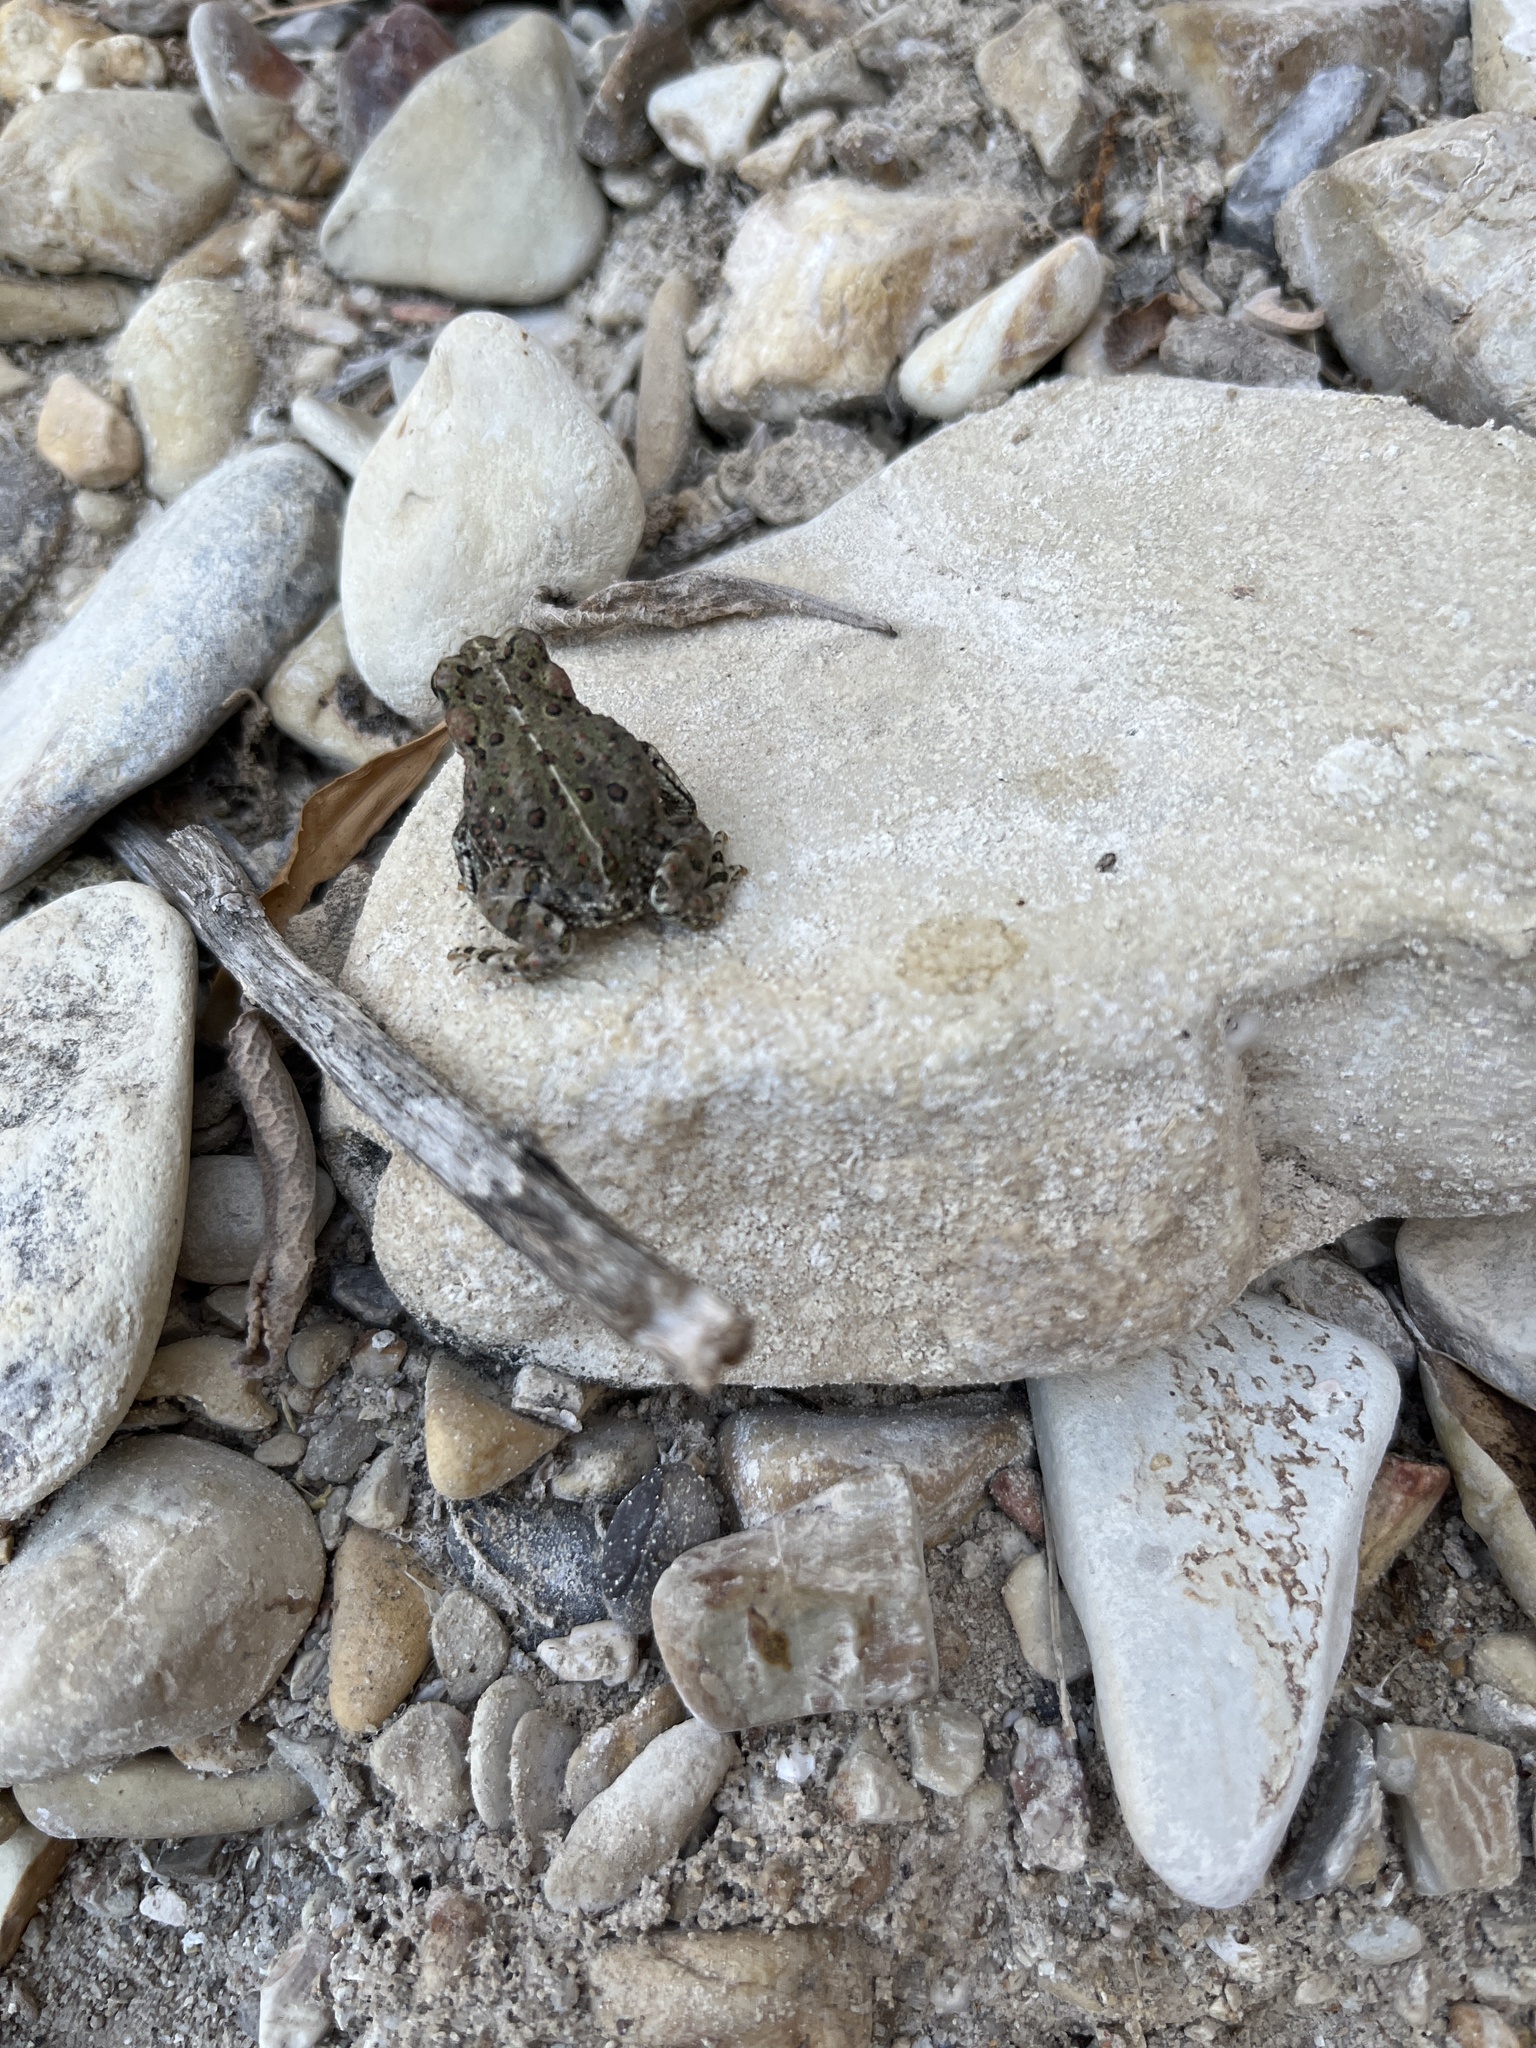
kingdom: Animalia
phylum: Chordata
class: Amphibia
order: Anura
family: Bufonidae
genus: Anaxyrus
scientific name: Anaxyrus boreas
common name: Western toad
